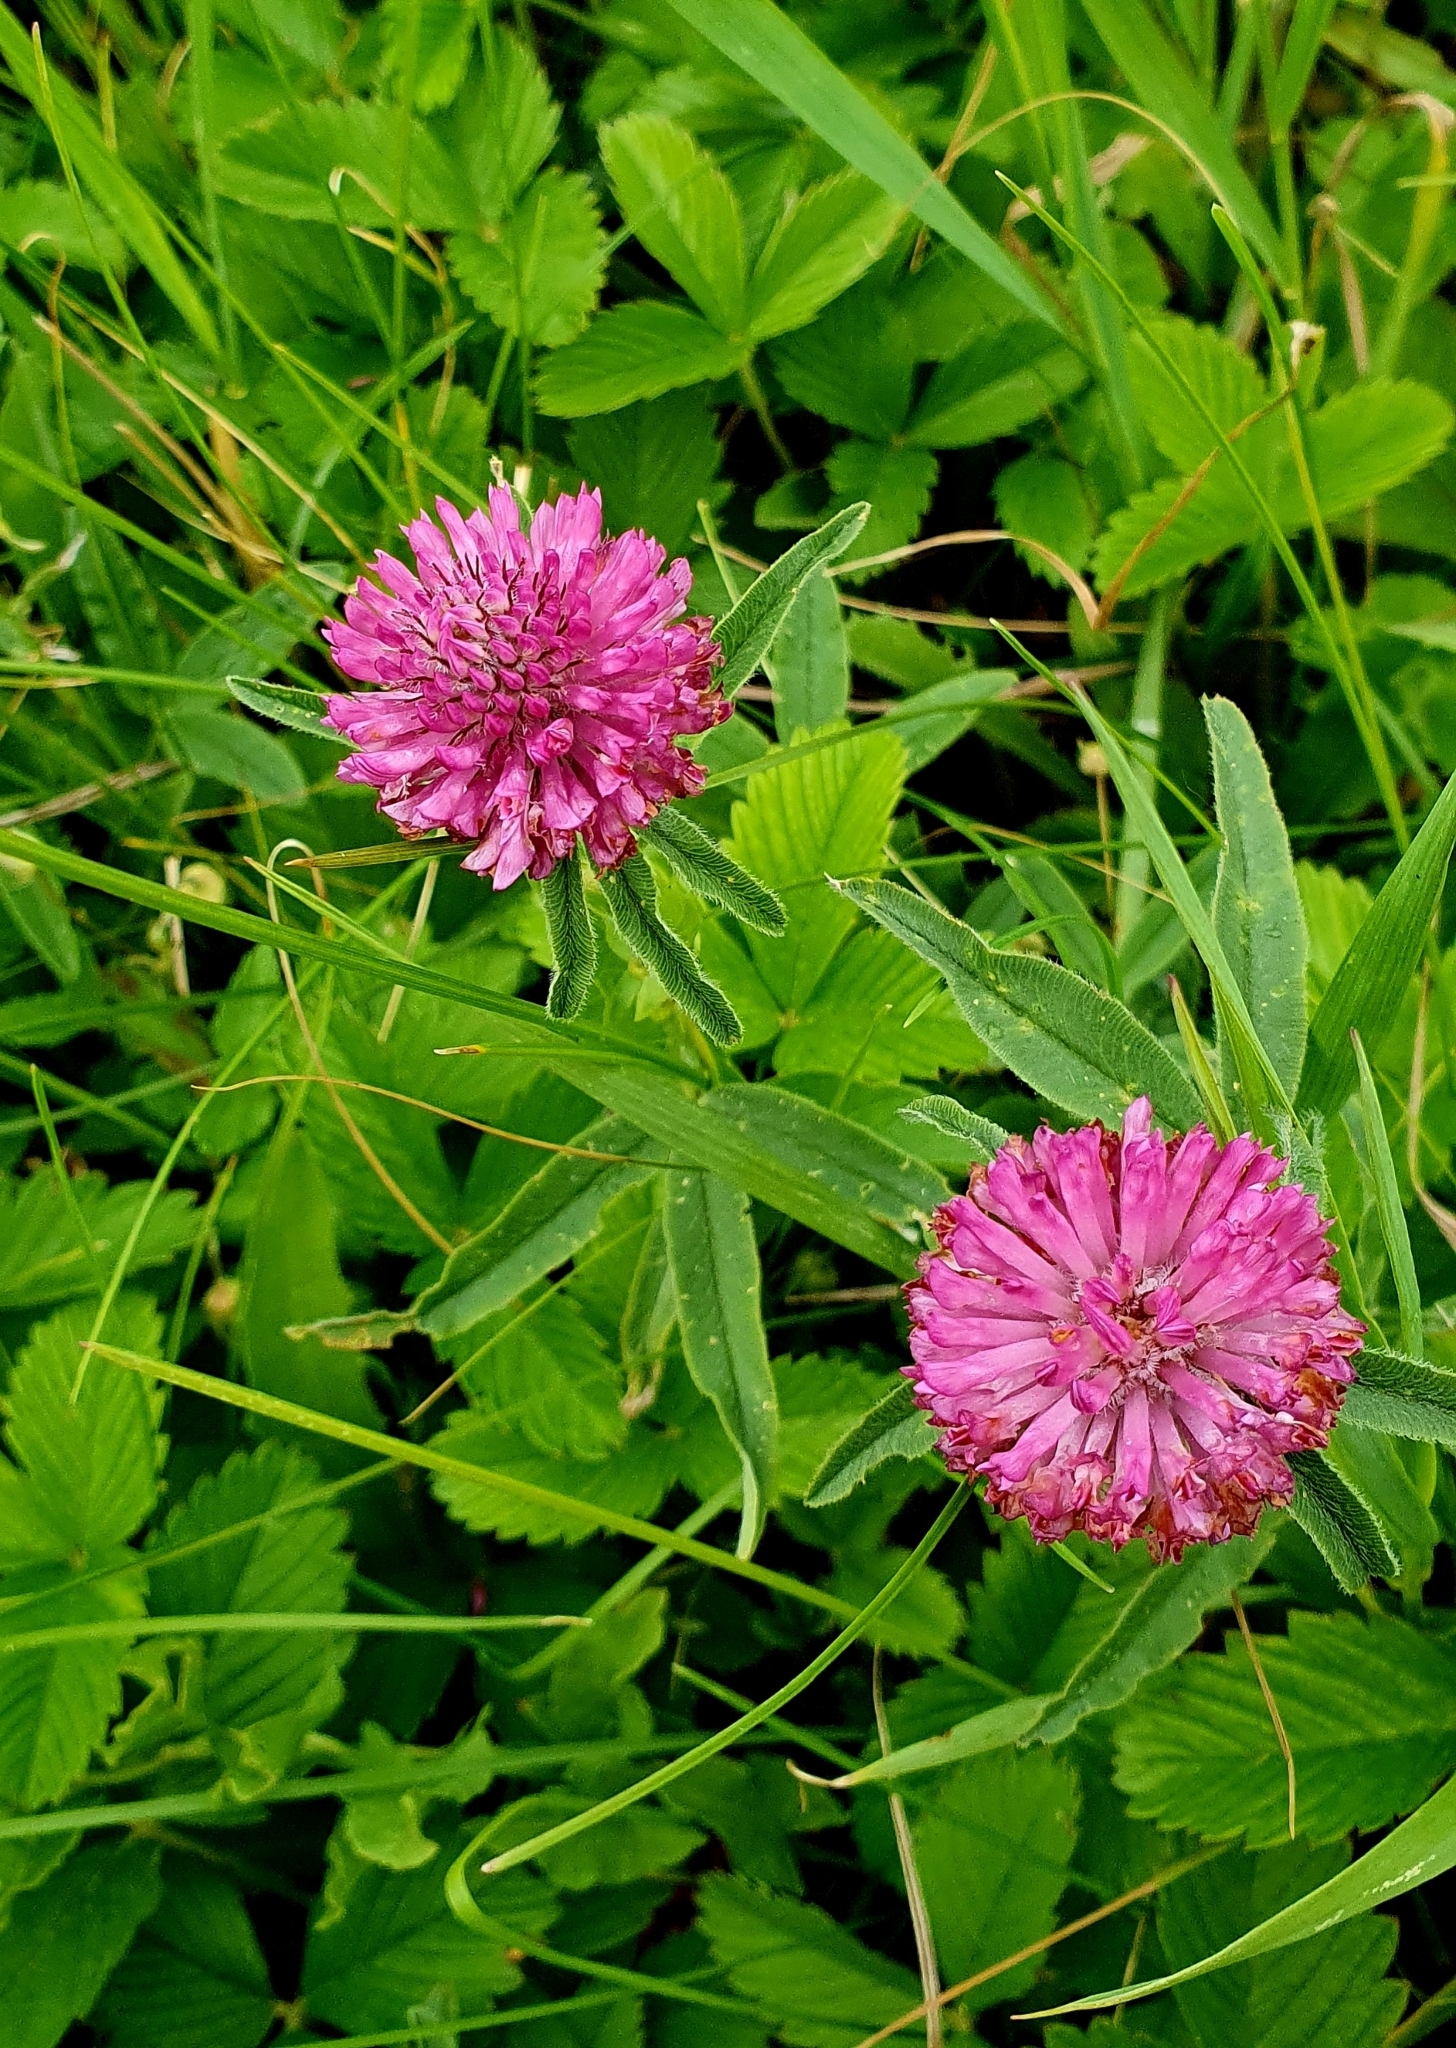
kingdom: Plantae
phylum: Tracheophyta
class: Magnoliopsida
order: Fabales
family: Fabaceae
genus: Trifolium
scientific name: Trifolium alpestre
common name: Owl-head clover
